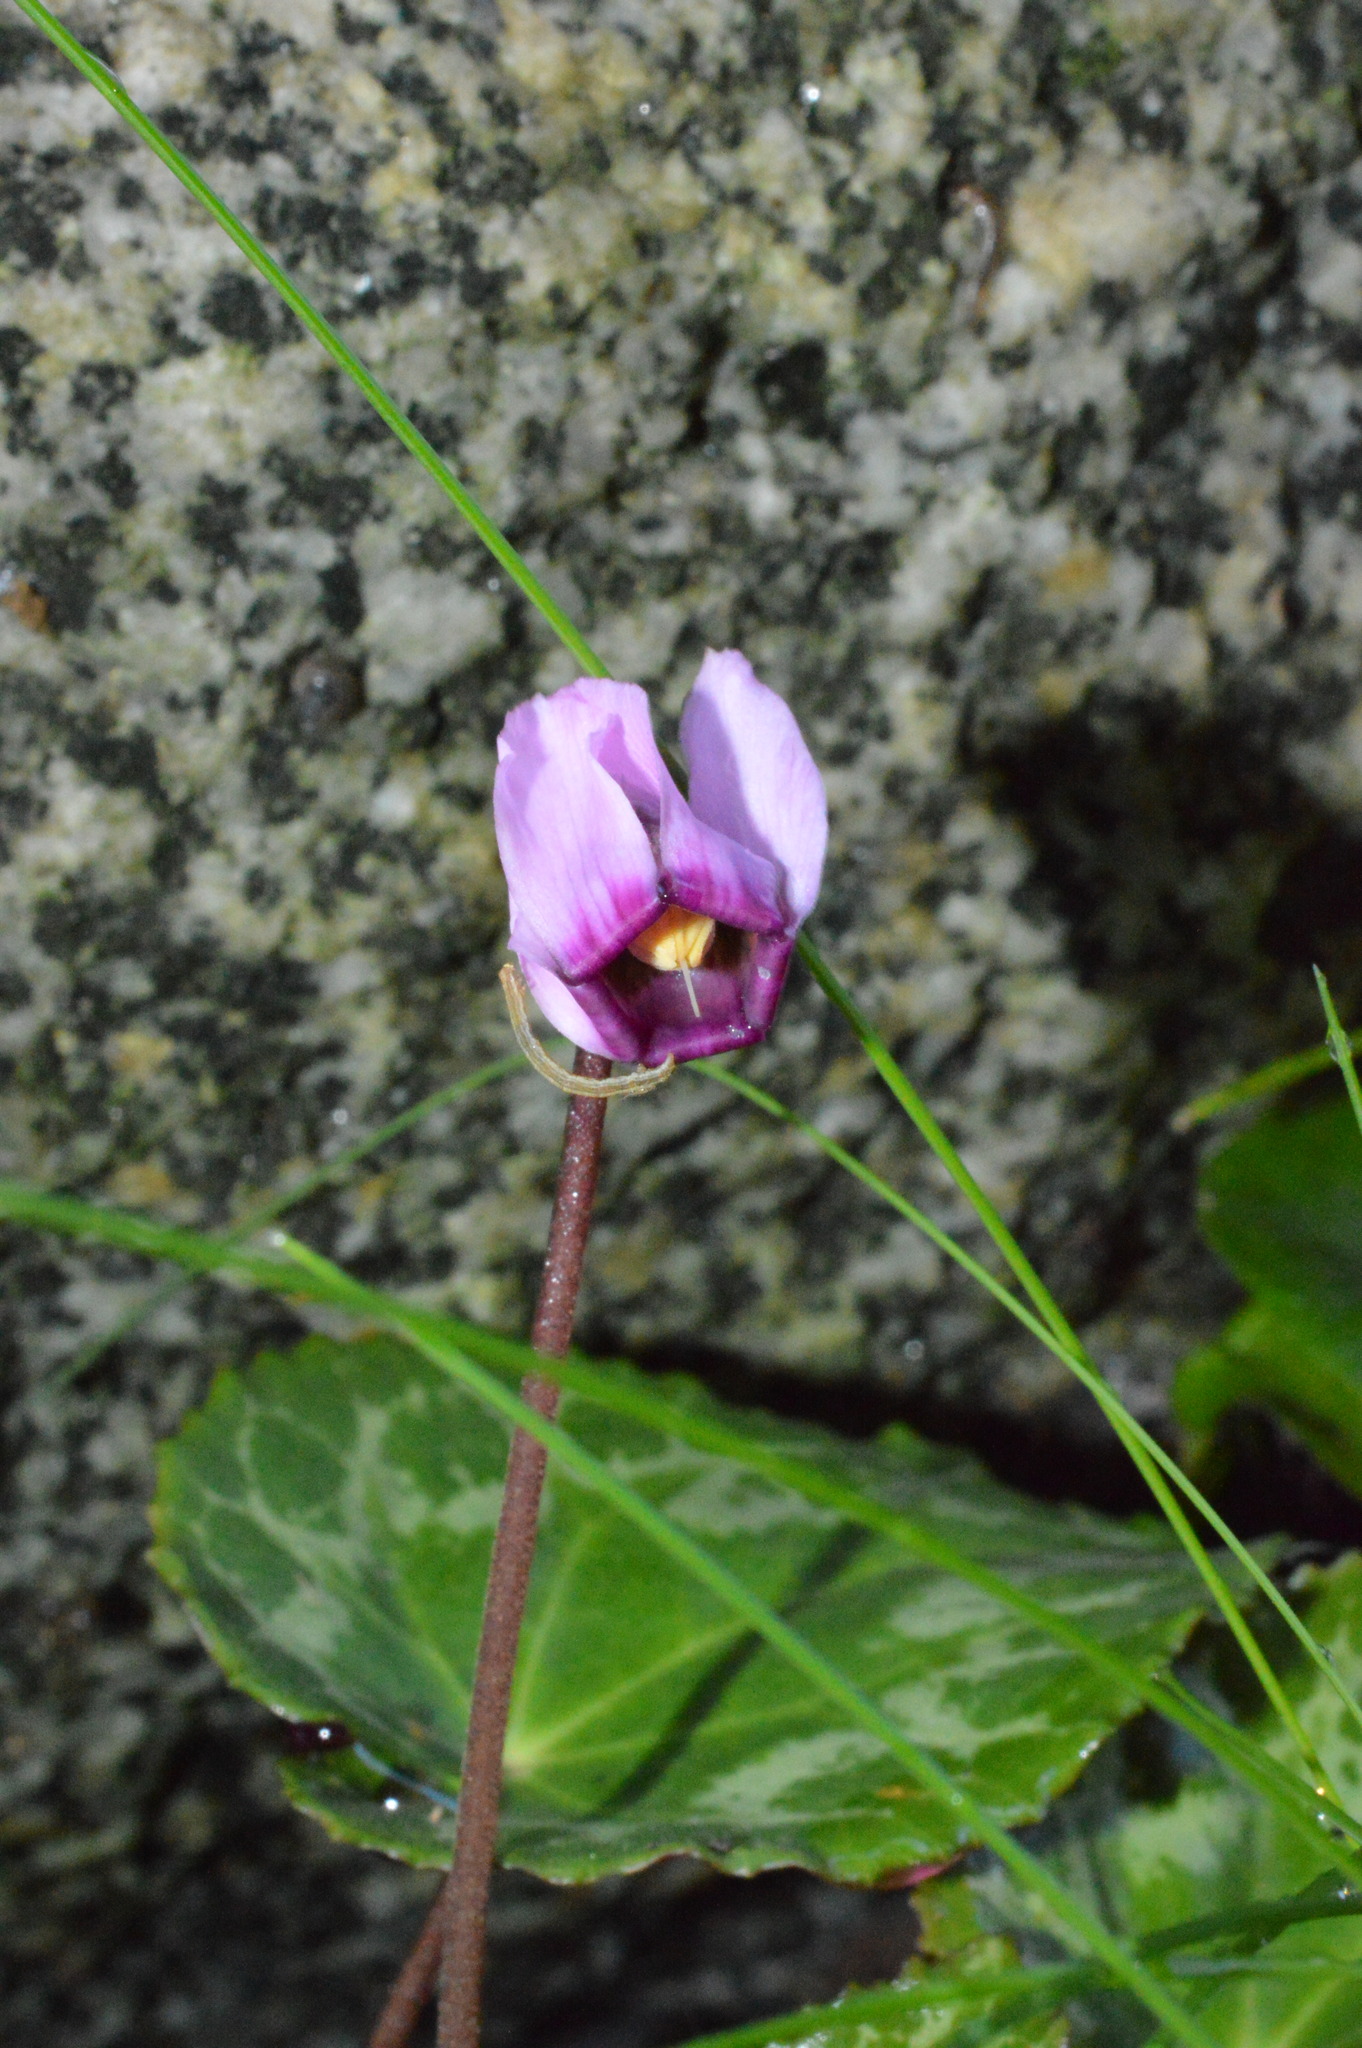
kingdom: Plantae
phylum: Tracheophyta
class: Magnoliopsida
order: Ericales
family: Primulaceae
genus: Cyclamen
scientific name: Cyclamen purpurascens
